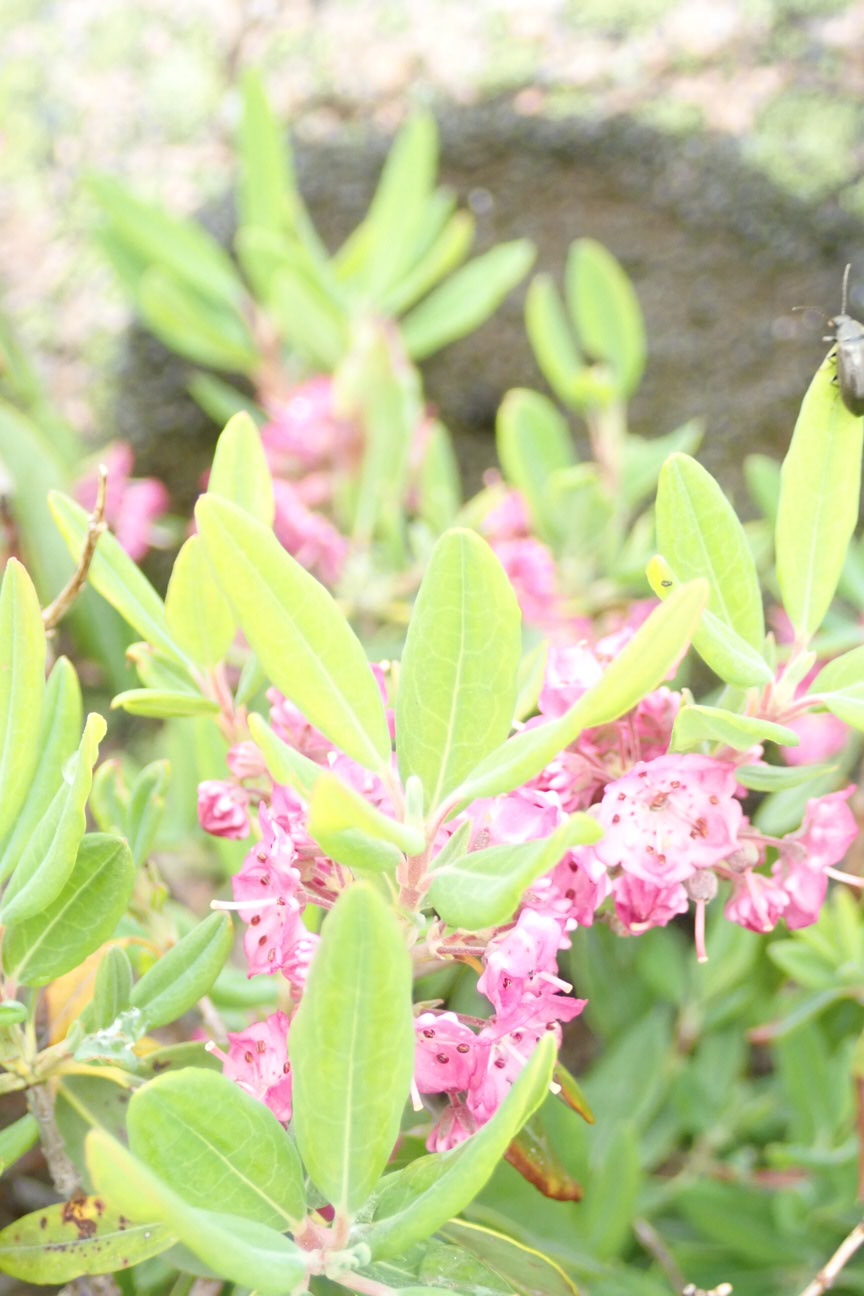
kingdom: Plantae
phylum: Tracheophyta
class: Magnoliopsida
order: Ericales
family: Ericaceae
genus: Kalmia
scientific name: Kalmia angustifolia
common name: Sheep-laurel
